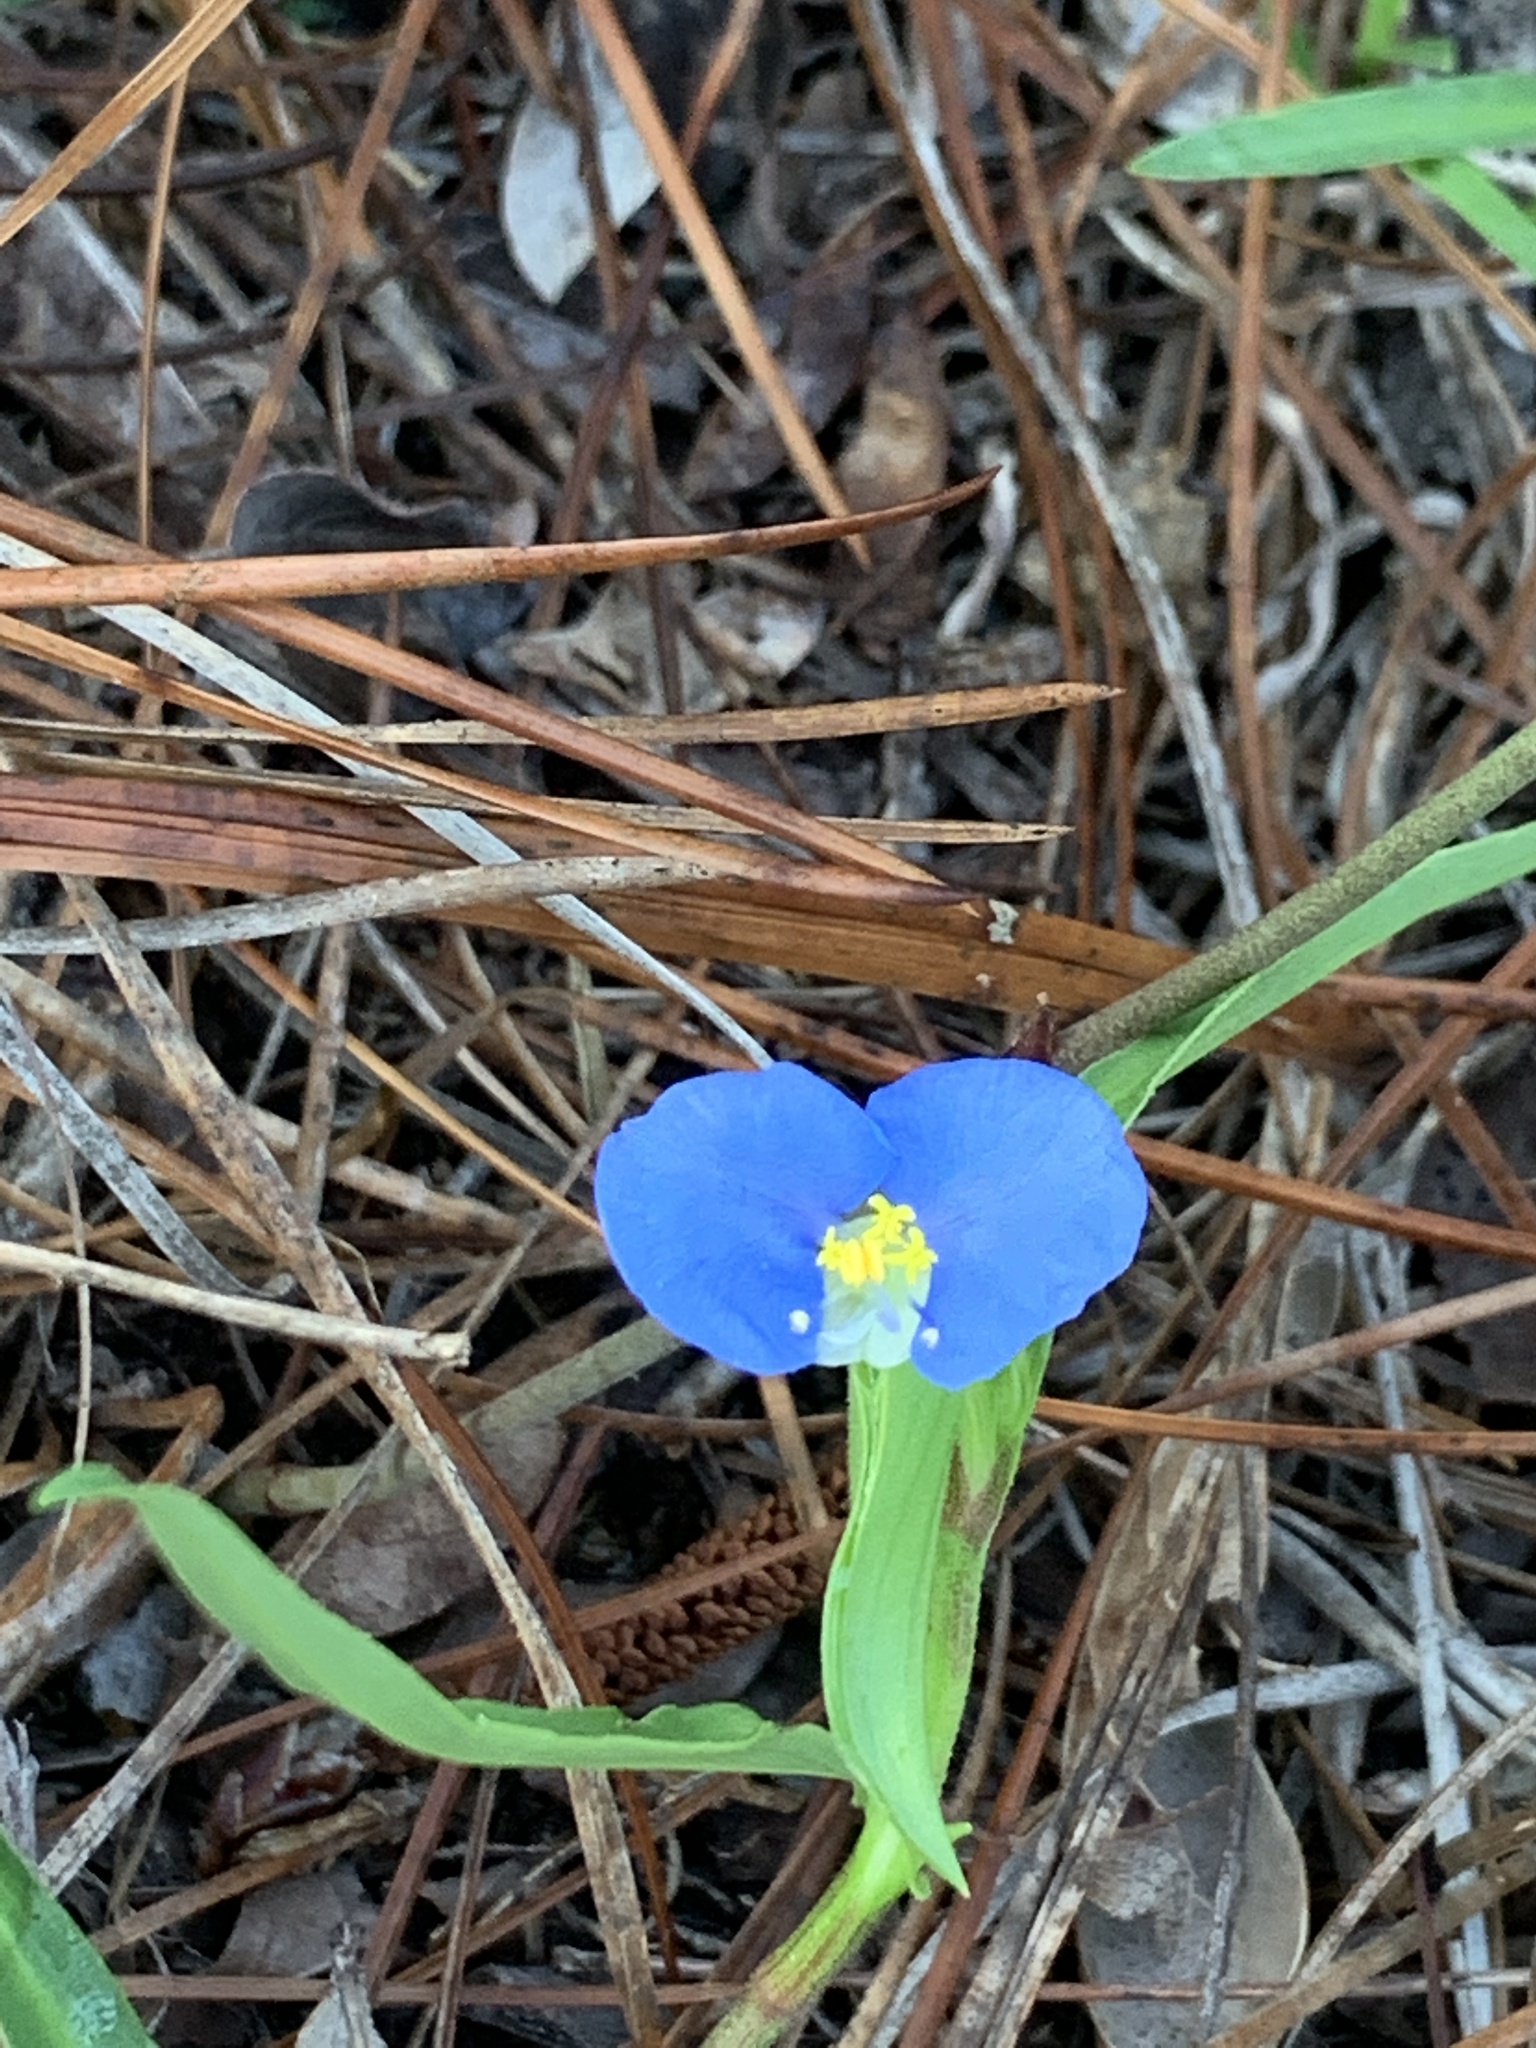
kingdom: Plantae
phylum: Tracheophyta
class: Liliopsida
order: Commelinales
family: Commelinaceae
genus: Commelina
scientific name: Commelina erecta
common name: Blousel blommetjie
